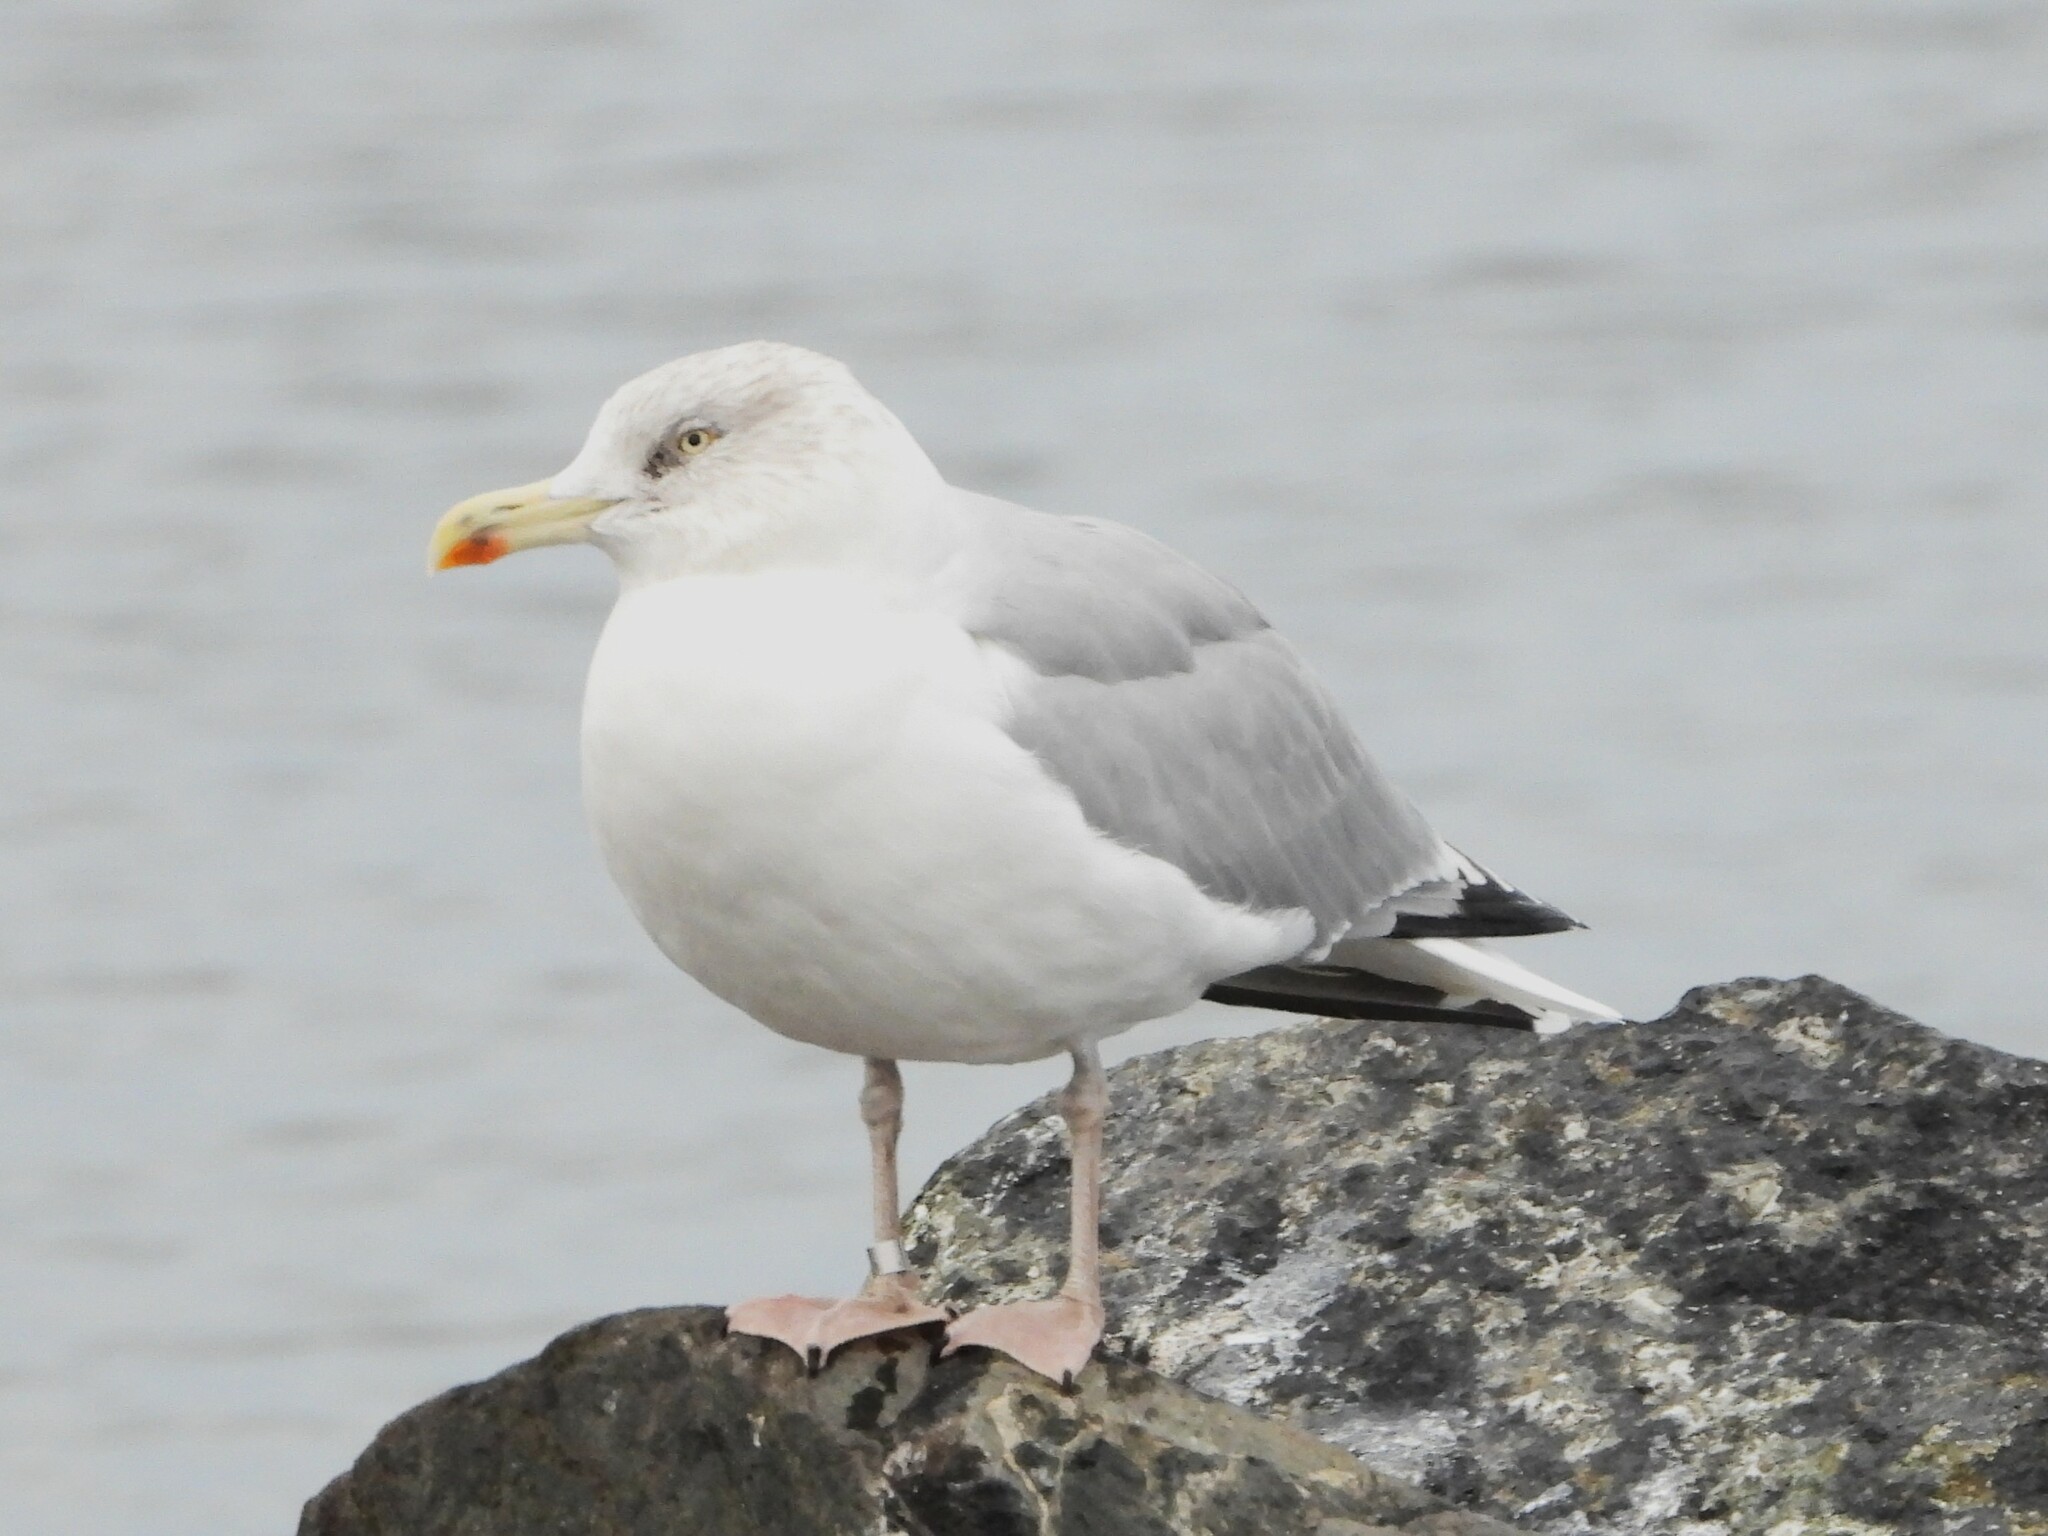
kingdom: Animalia
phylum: Chordata
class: Aves
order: Charadriiformes
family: Laridae
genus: Larus
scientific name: Larus argentatus
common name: Herring gull
